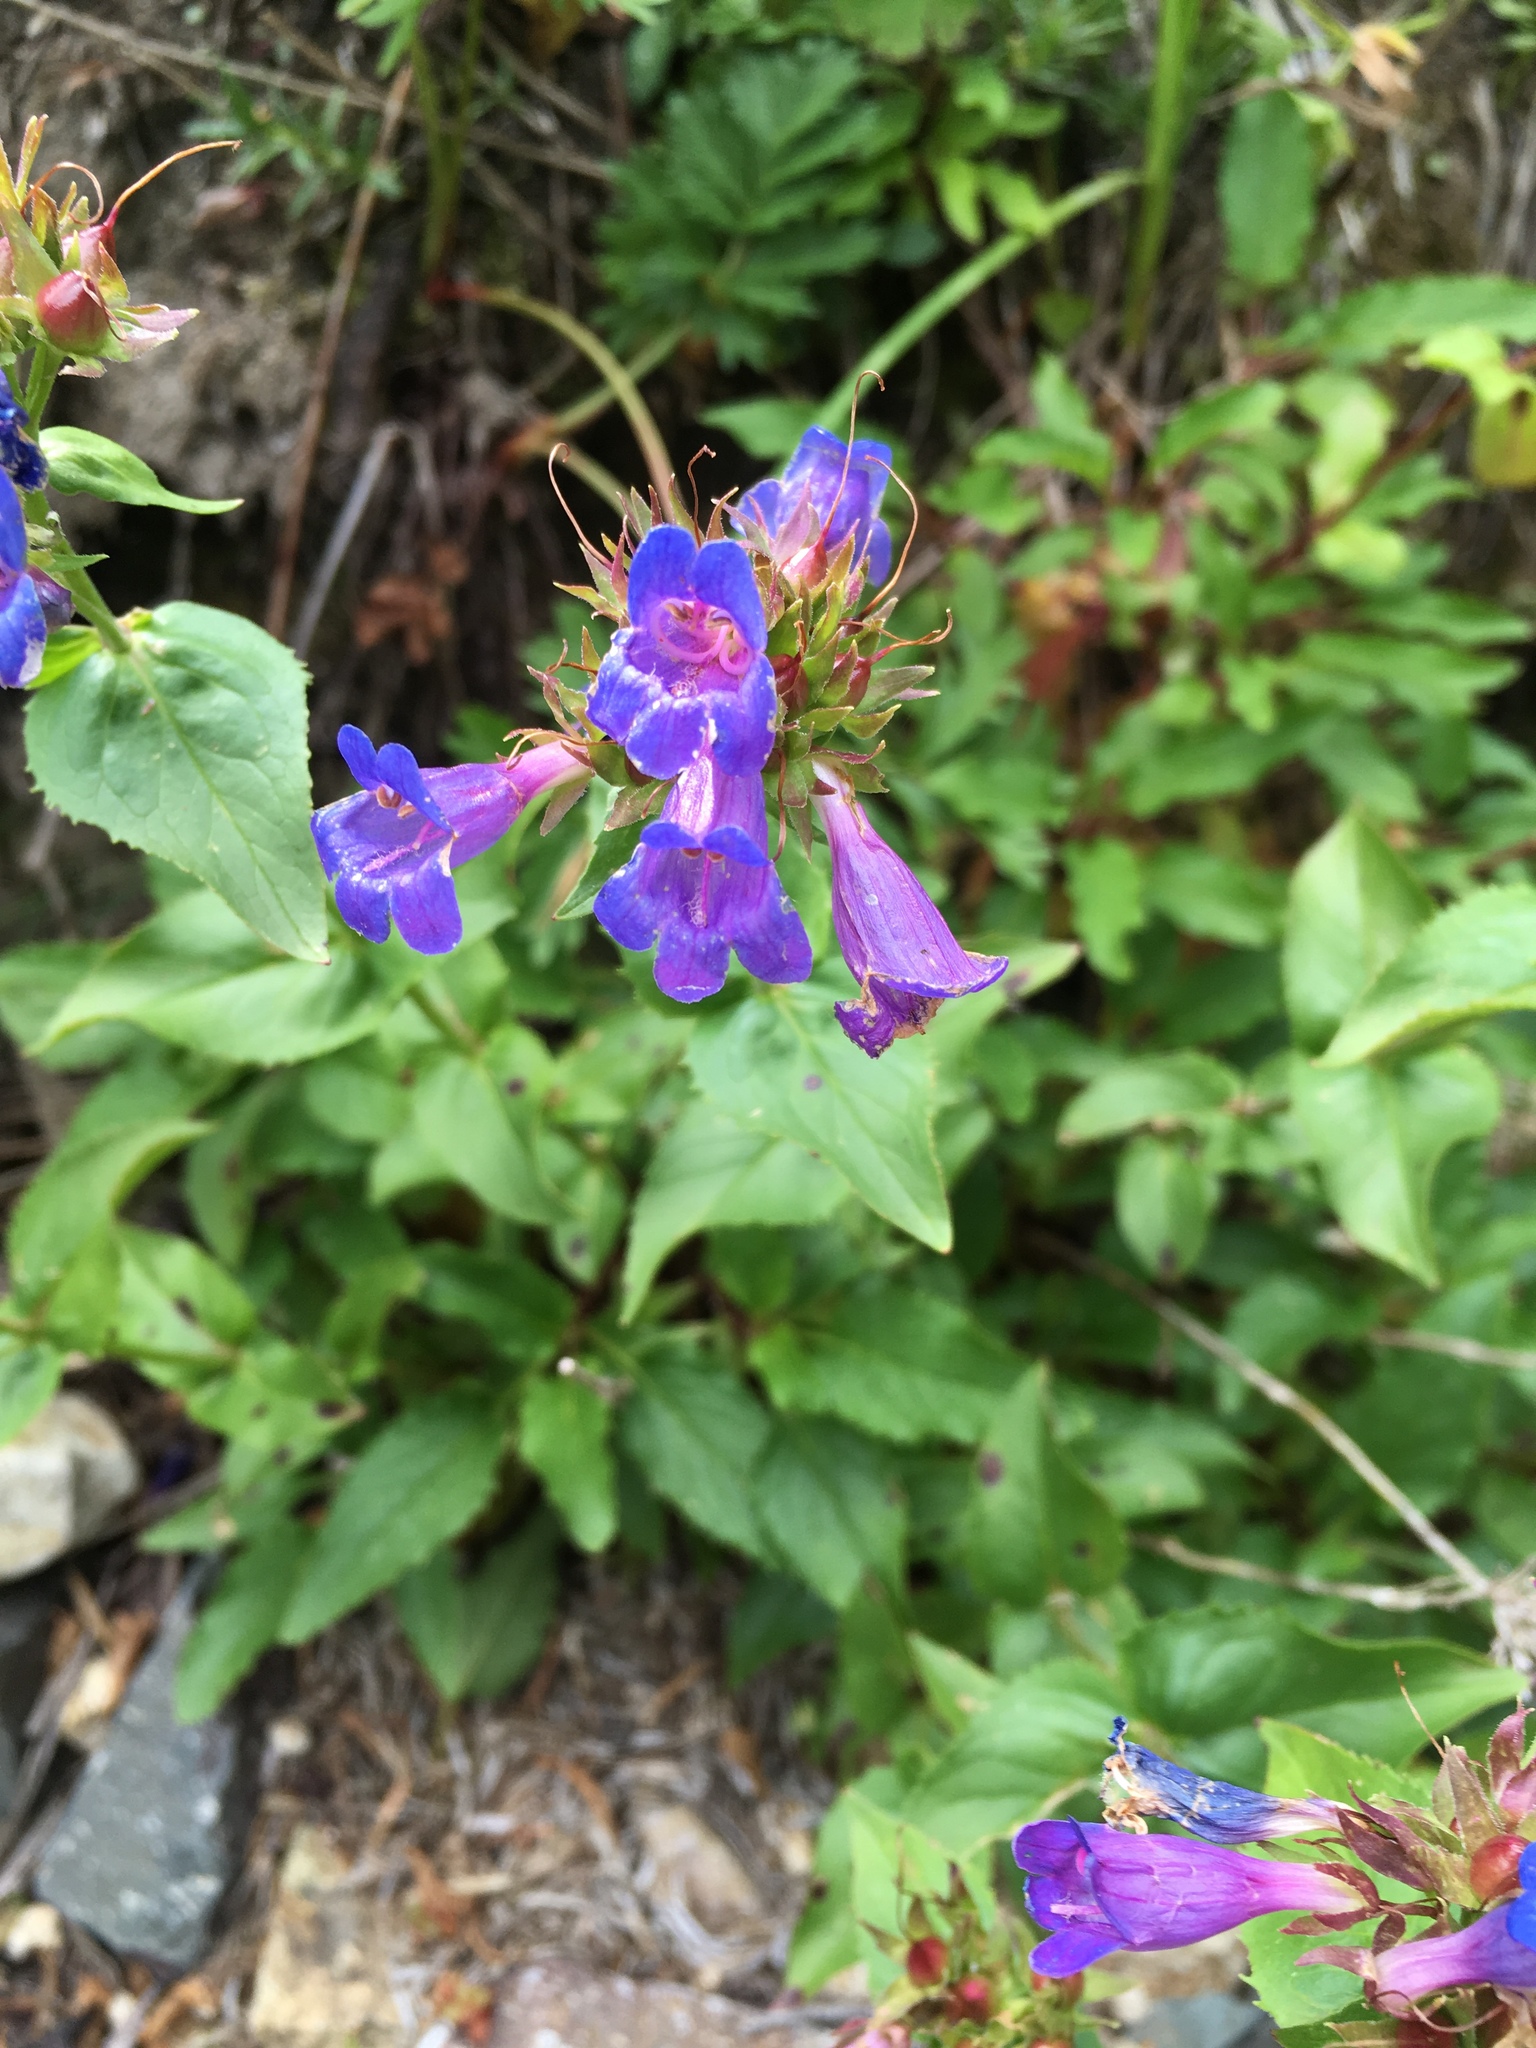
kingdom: Plantae
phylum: Tracheophyta
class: Magnoliopsida
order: Lamiales
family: Plantaginaceae
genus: Penstemon
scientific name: Penstemon serrulatus
